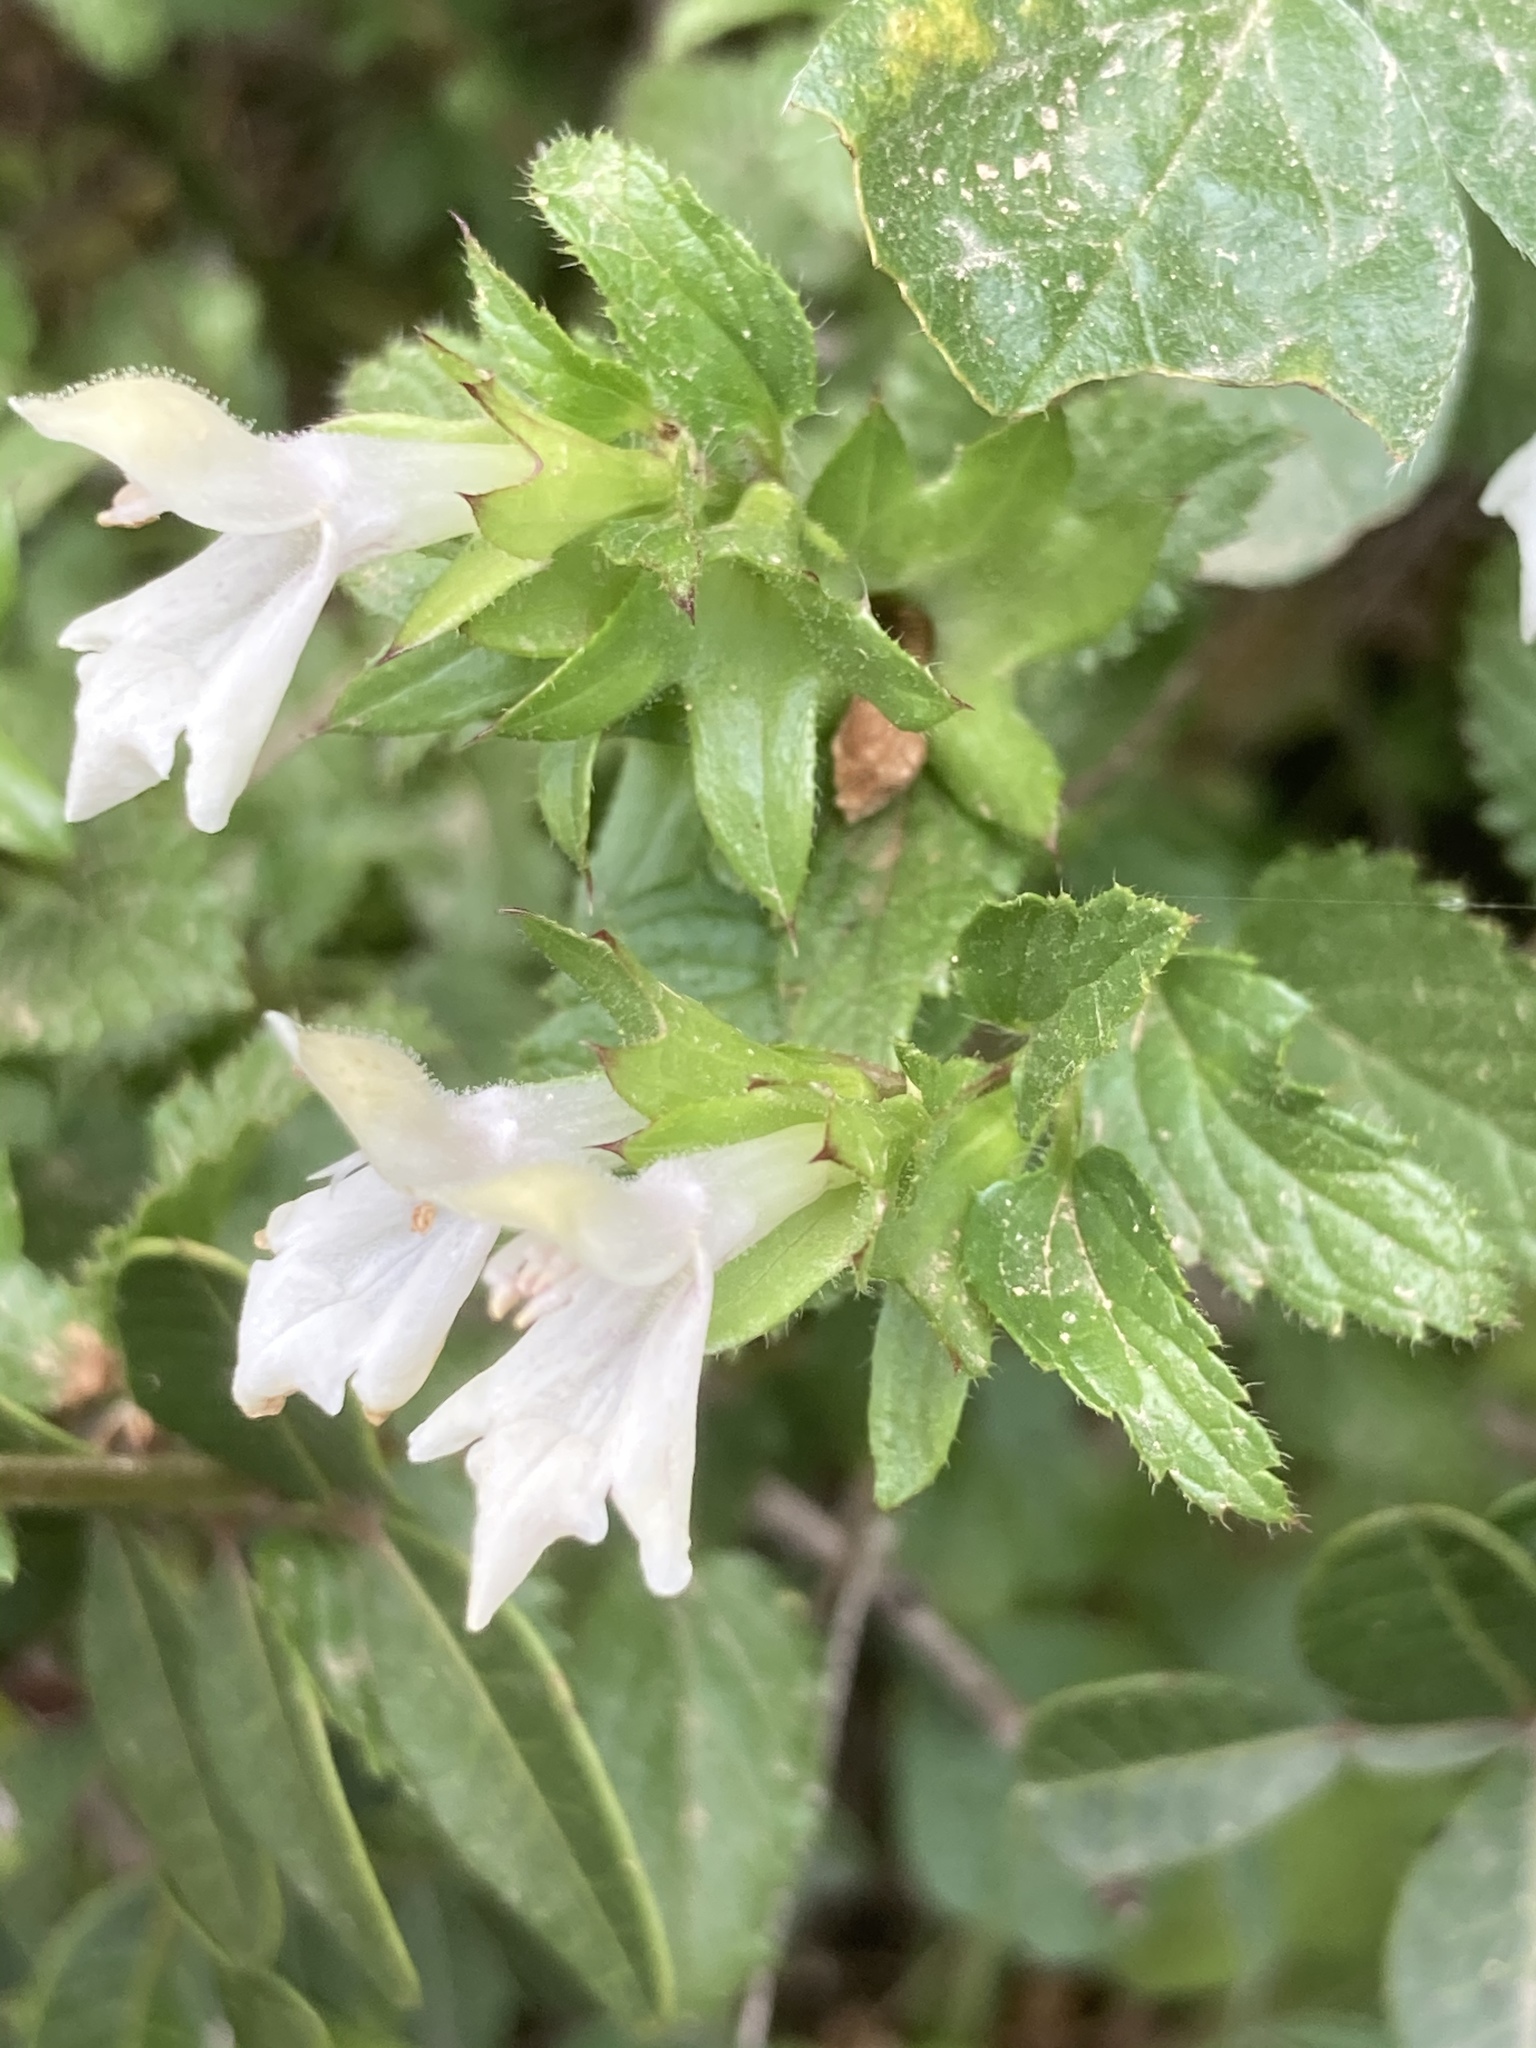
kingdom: Plantae
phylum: Tracheophyta
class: Magnoliopsida
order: Lamiales
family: Lamiaceae
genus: Prasium
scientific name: Prasium majus
